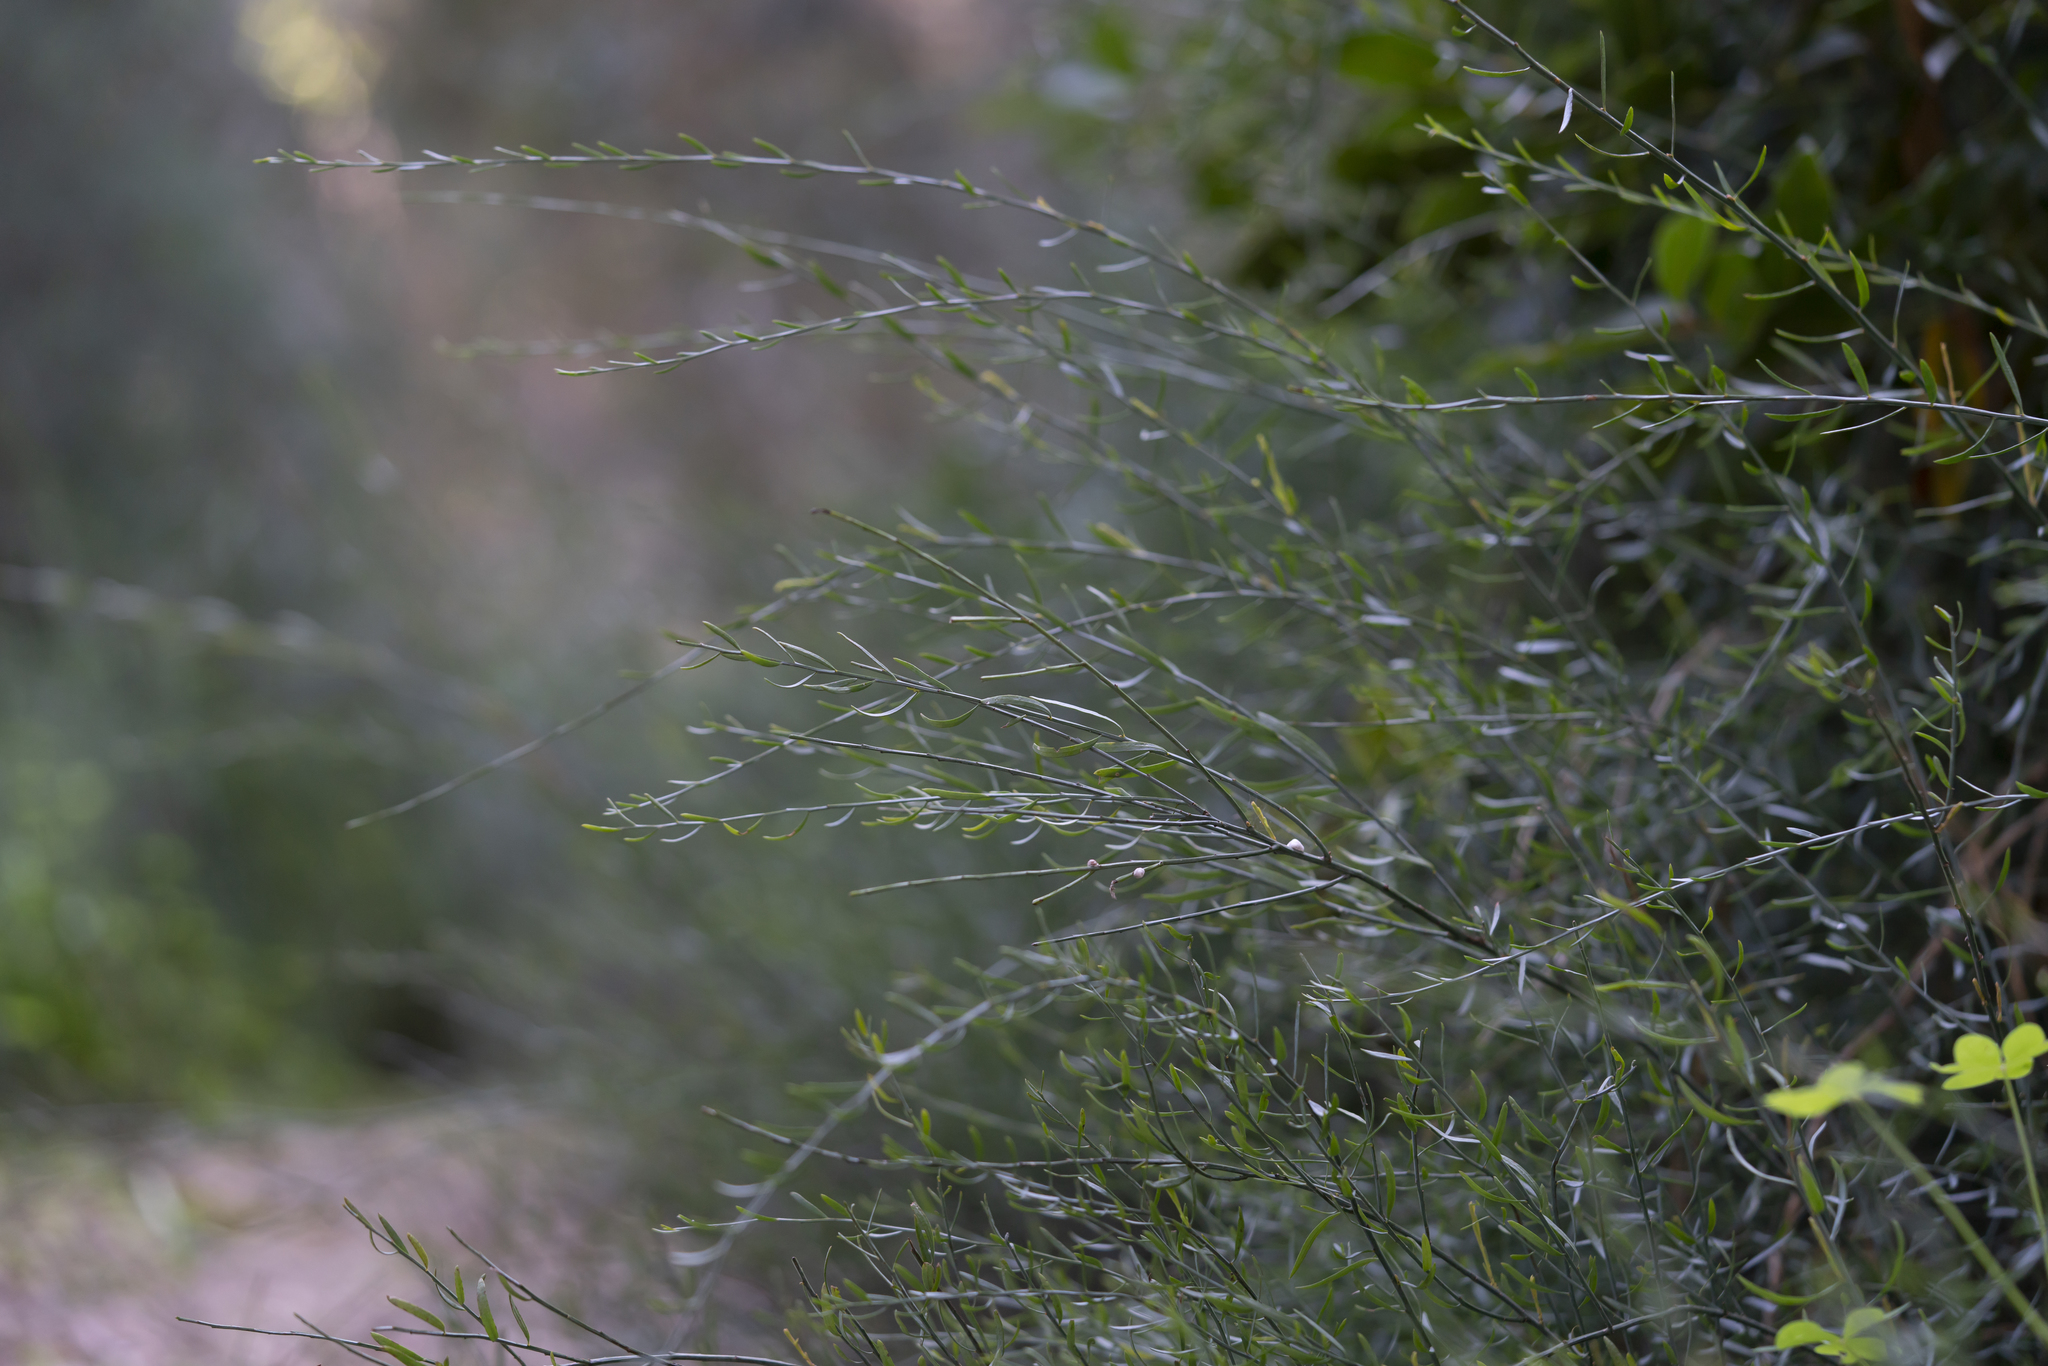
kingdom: Plantae
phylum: Tracheophyta
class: Magnoliopsida
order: Santalales
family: Santalaceae
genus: Osyris
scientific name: Osyris alba
